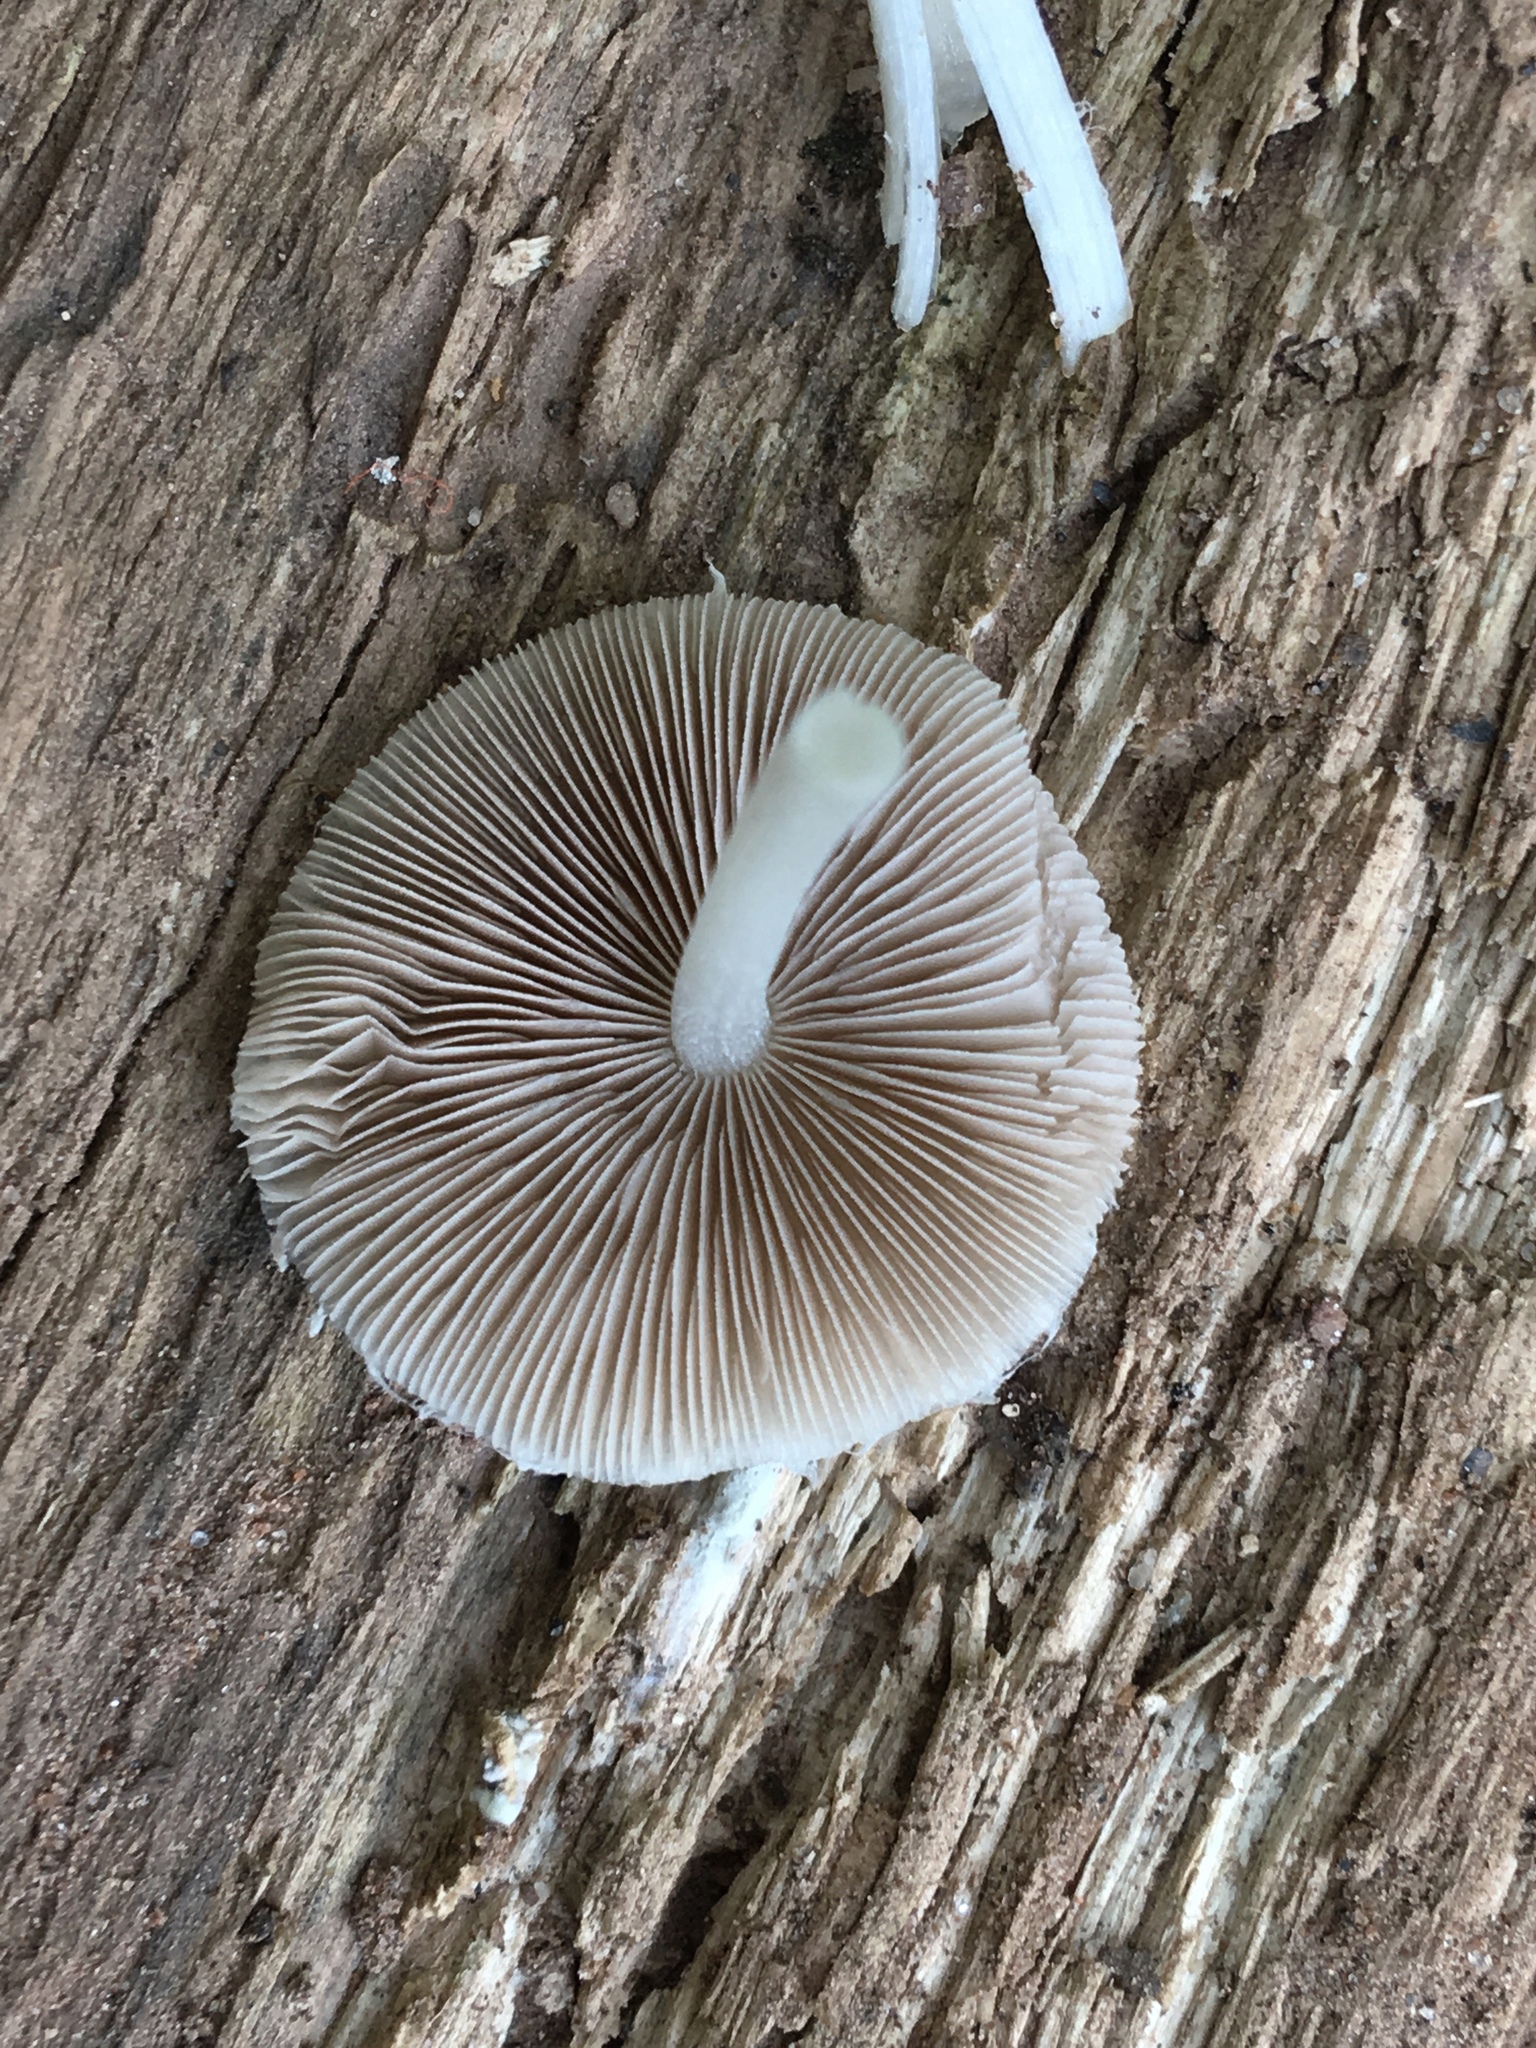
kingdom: Fungi
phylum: Basidiomycota
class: Agaricomycetes
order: Agaricales
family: Psathyrellaceae
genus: Candolleomyces
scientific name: Candolleomyces candolleanus
